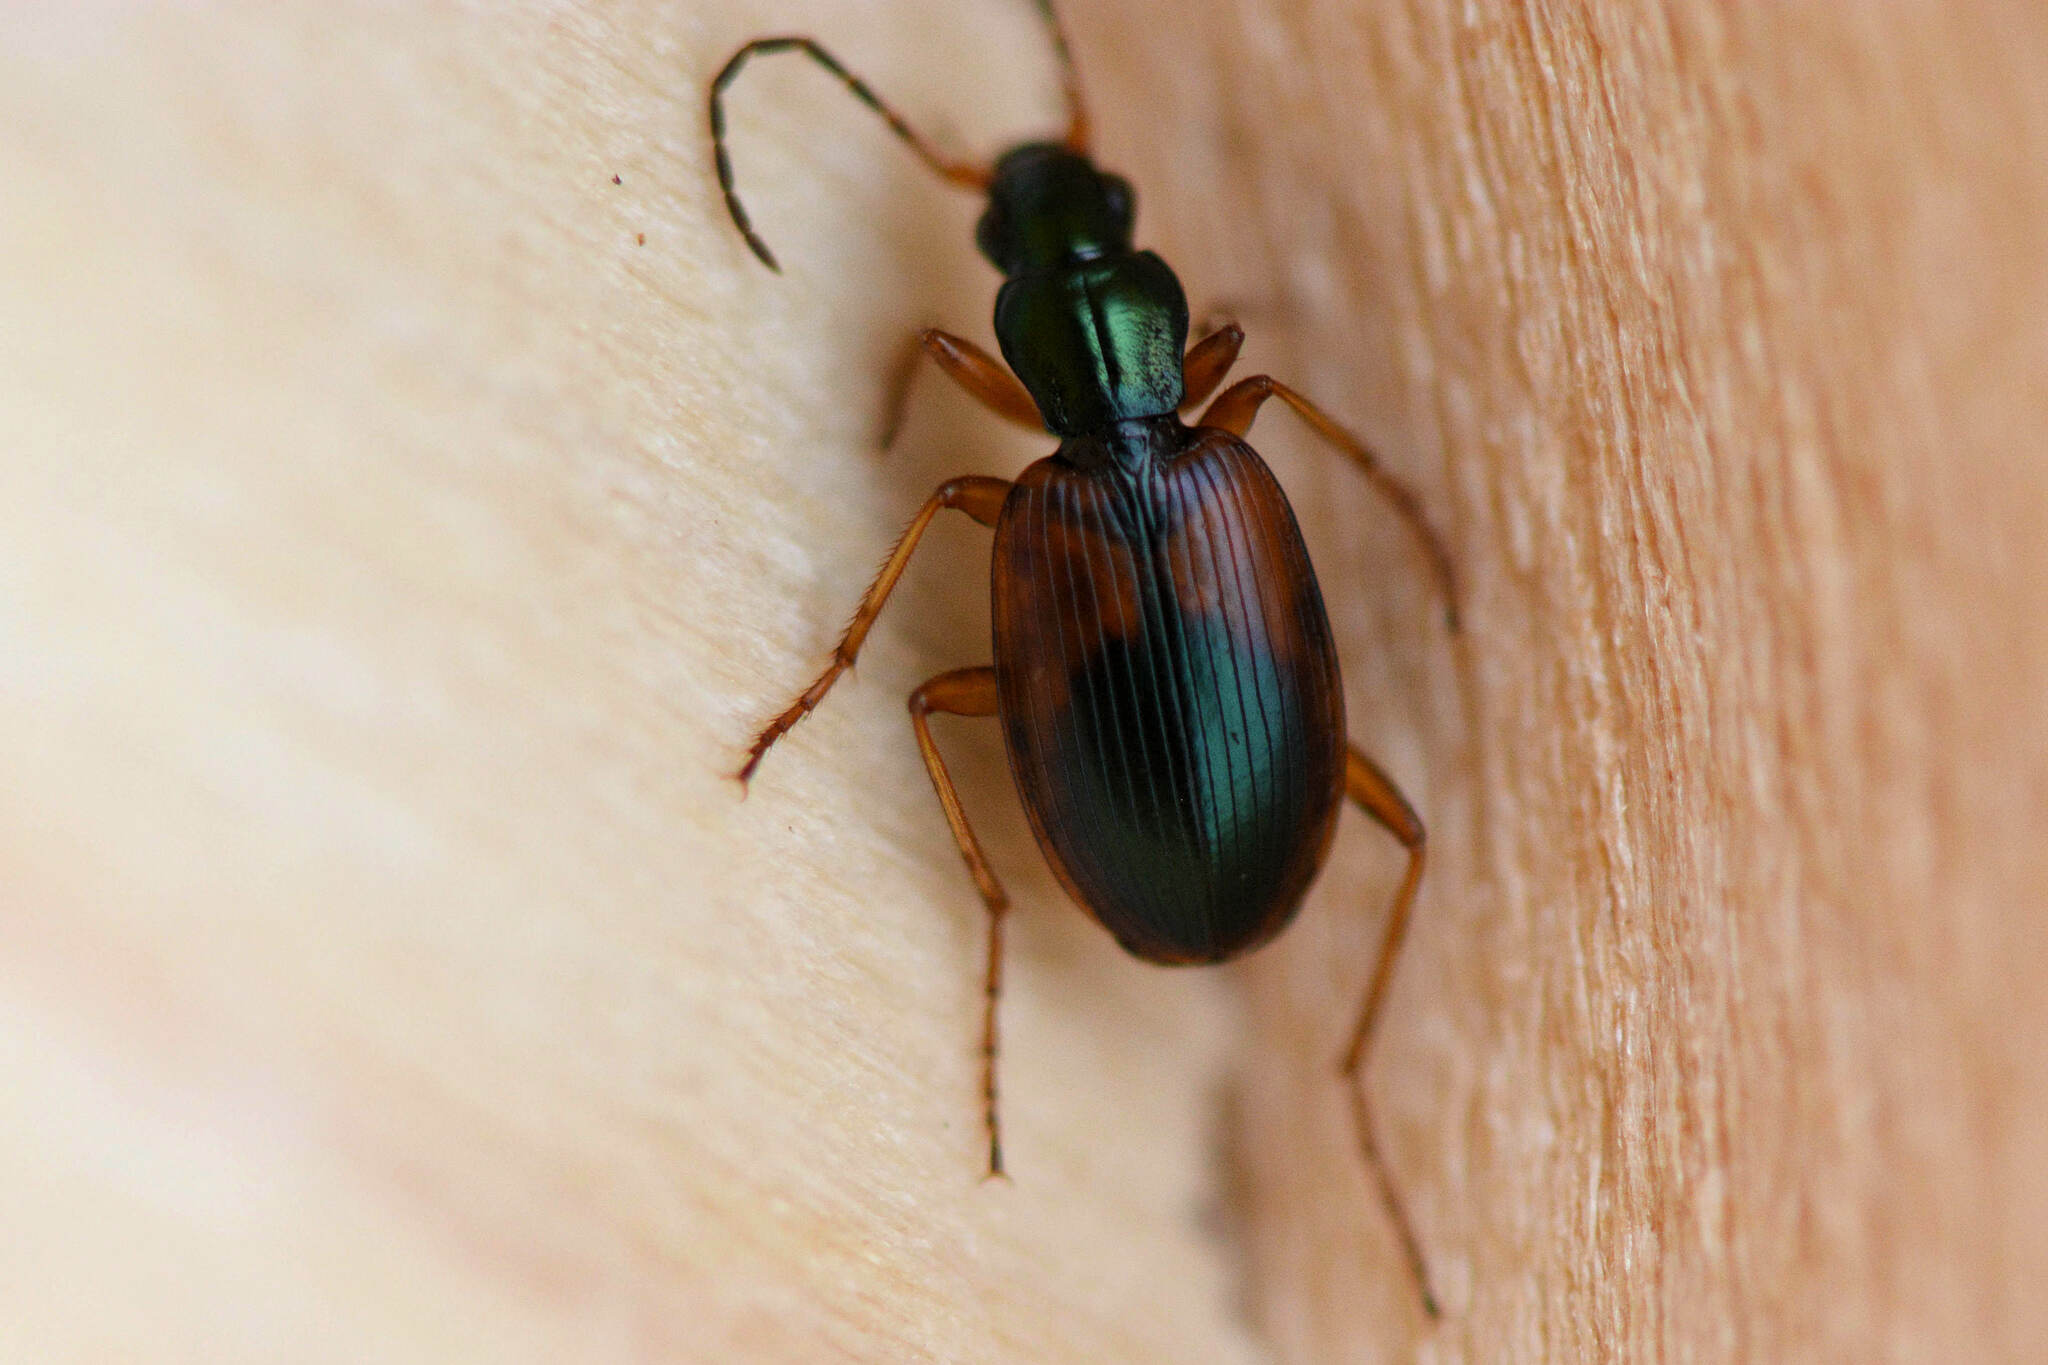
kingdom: Animalia
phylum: Arthropoda
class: Insecta
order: Coleoptera
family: Carabidae
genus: Anchomenus
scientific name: Anchomenus dorsalis
